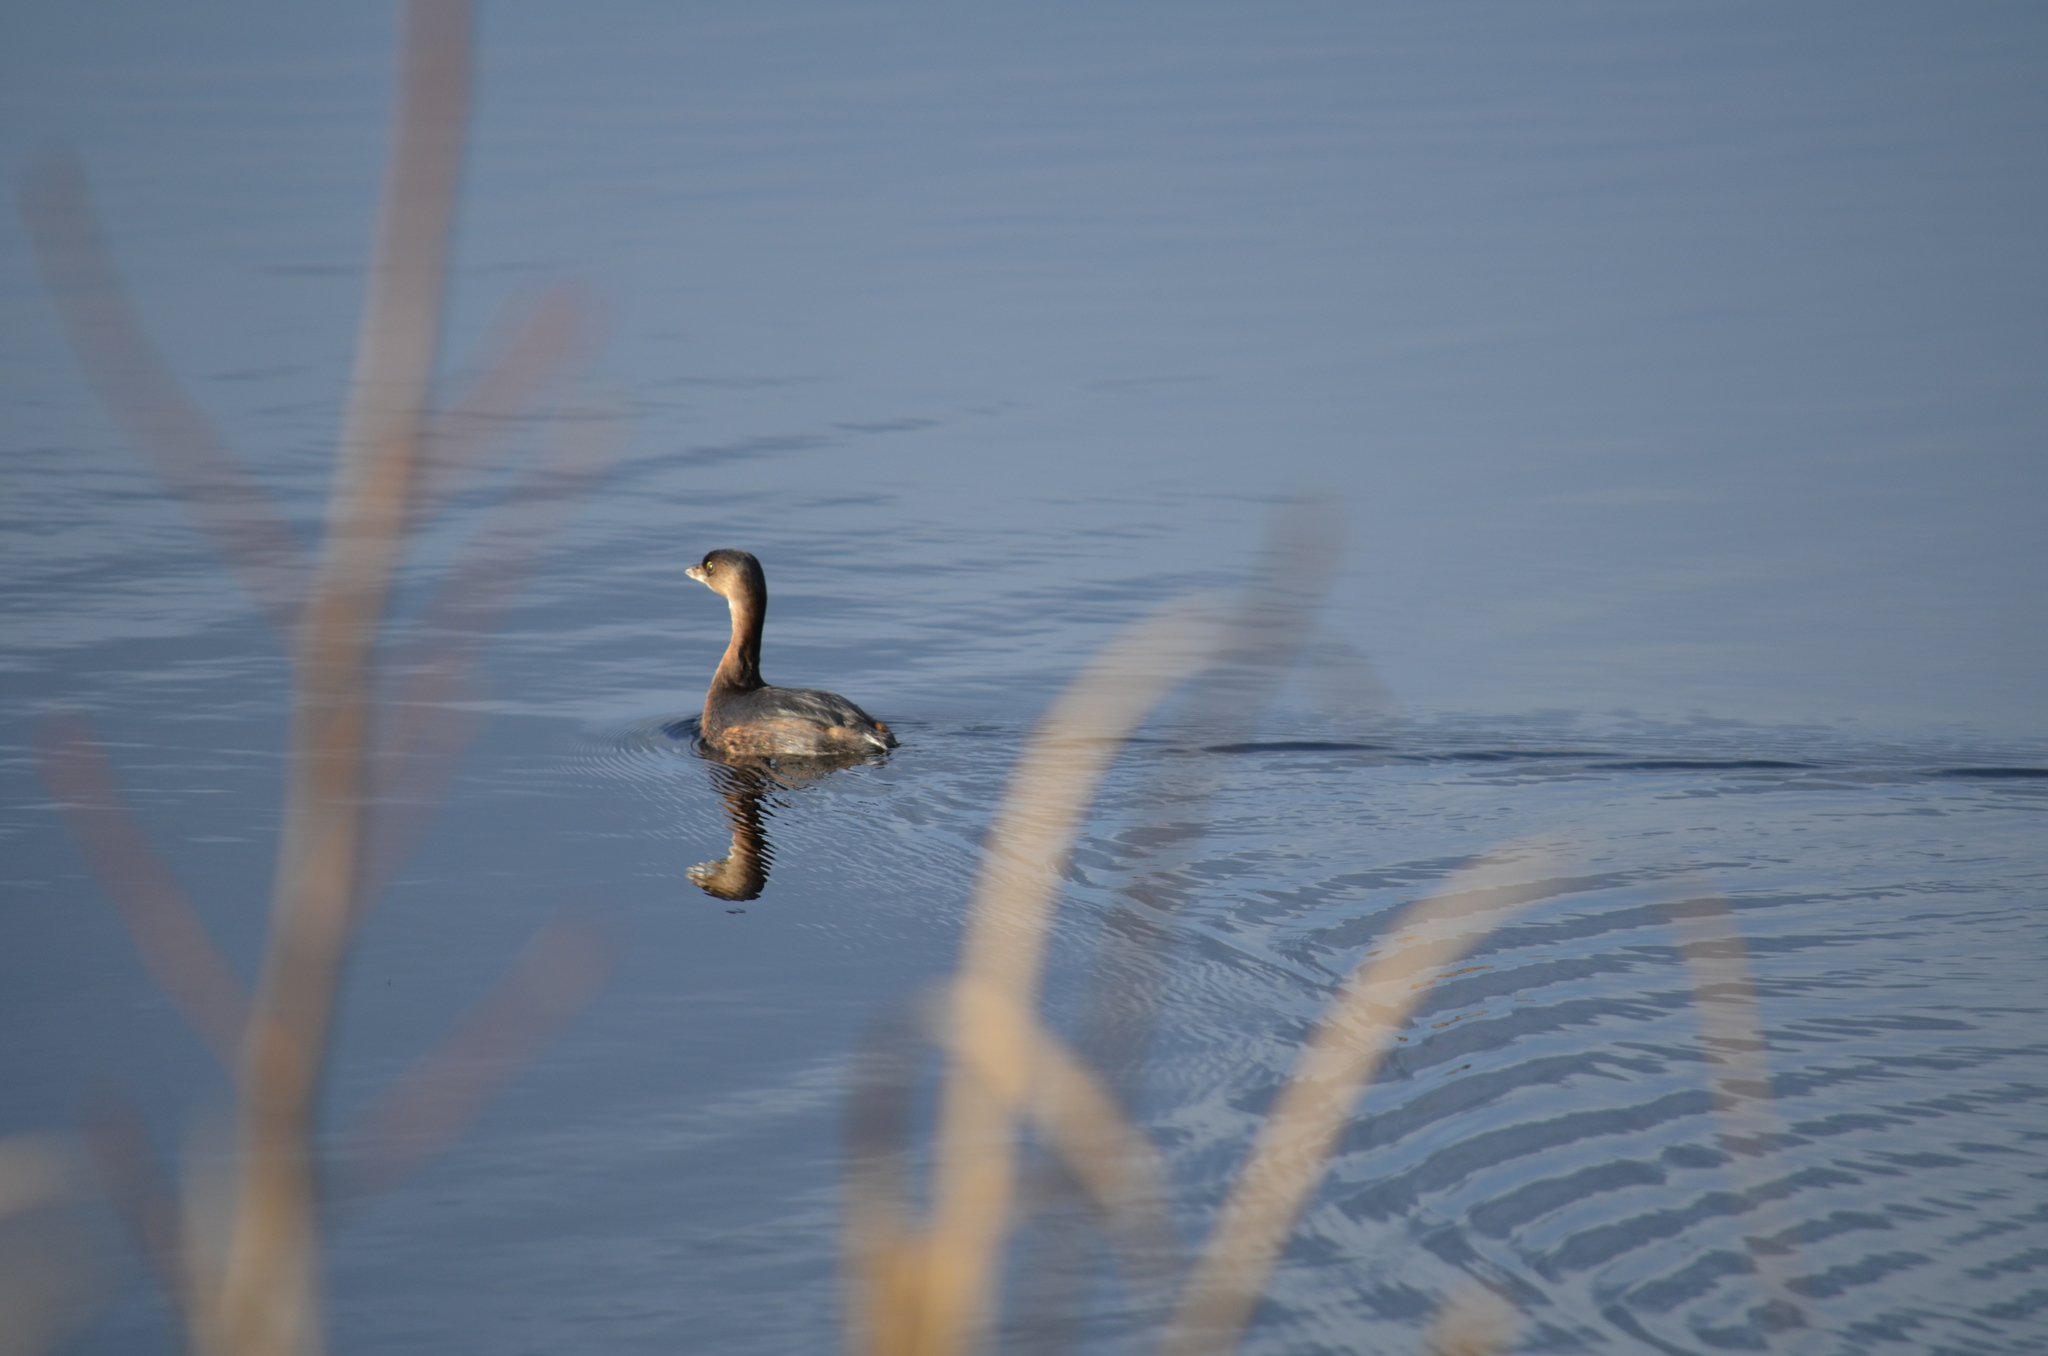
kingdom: Animalia
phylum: Chordata
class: Aves
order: Podicipediformes
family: Podicipedidae
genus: Podilymbus
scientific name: Podilymbus podiceps
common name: Pied-billed grebe
